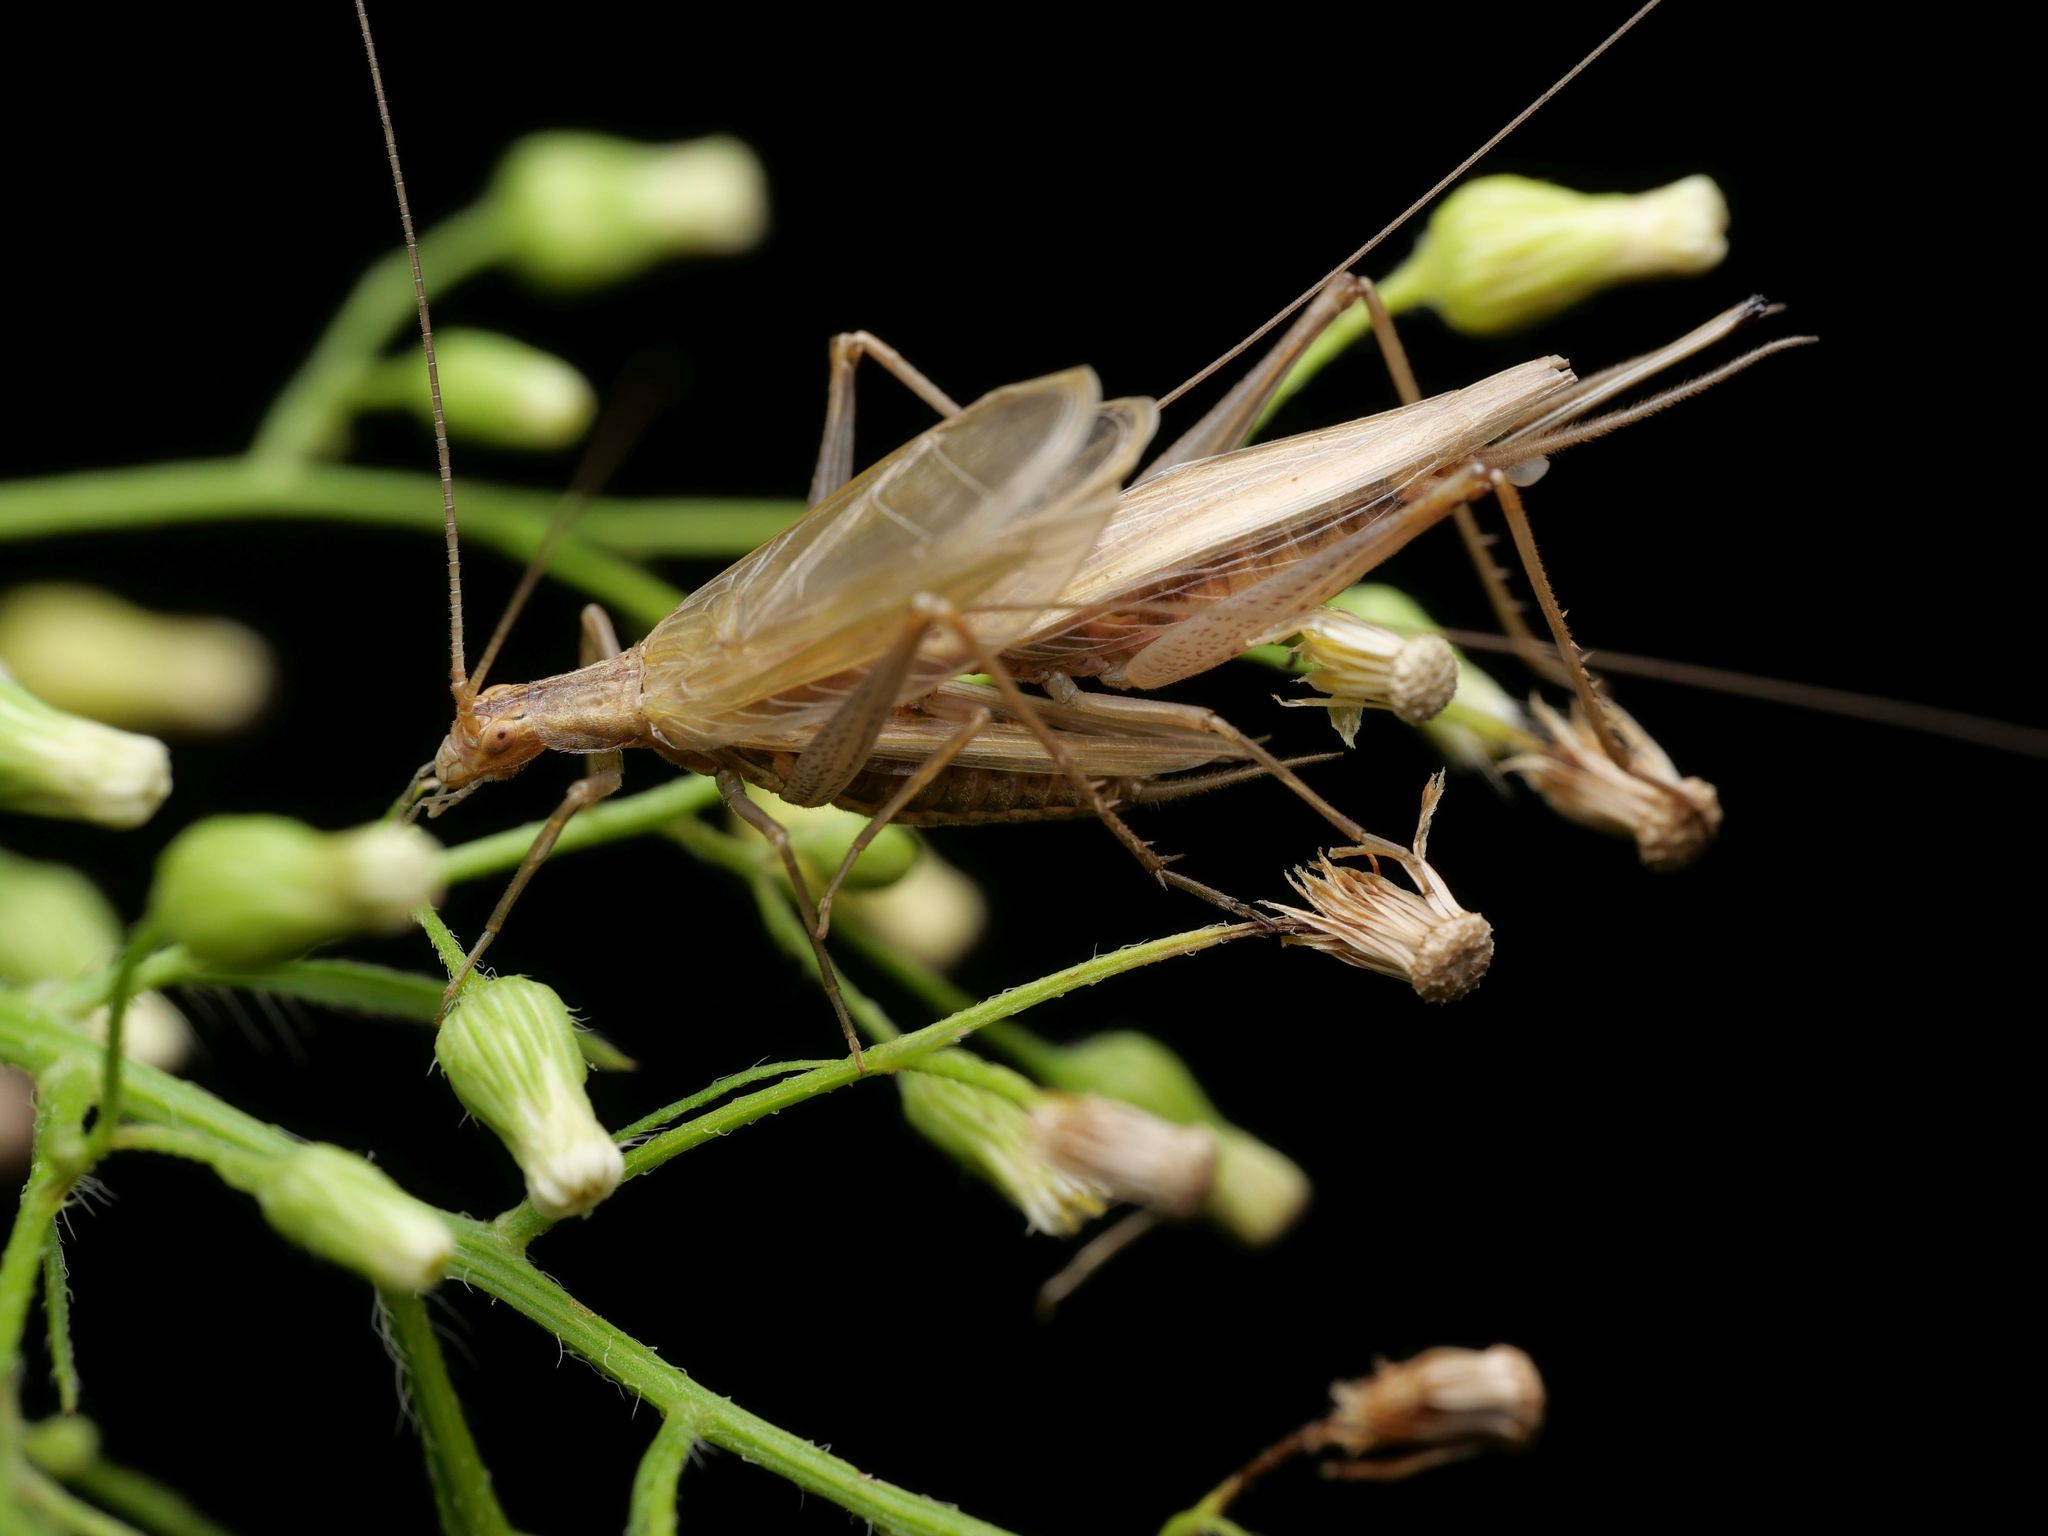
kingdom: Animalia
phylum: Arthropoda
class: Insecta
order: Orthoptera
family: Gryllidae
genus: Oecanthus
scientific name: Oecanthus pellucens
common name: Tree-cricket
